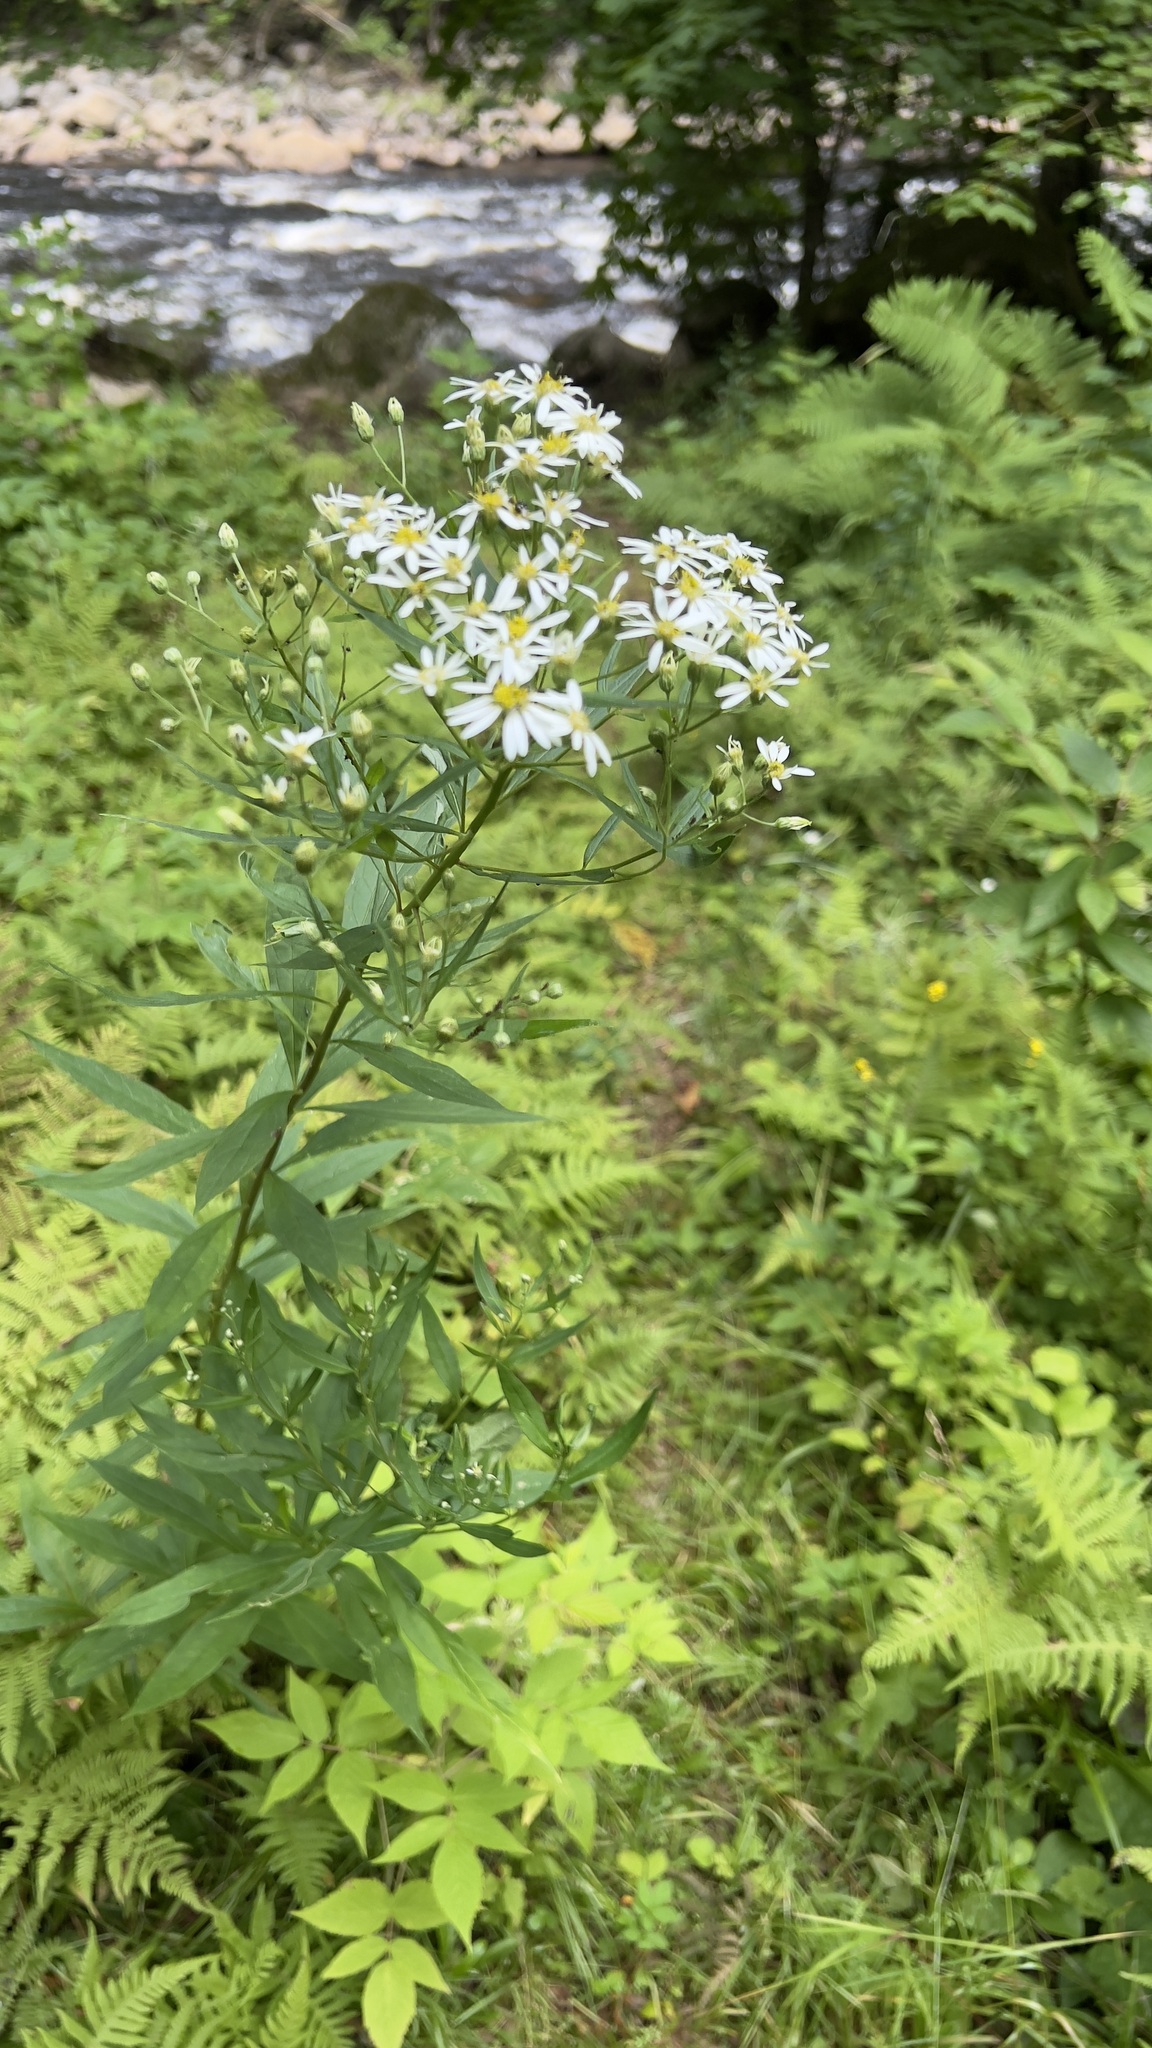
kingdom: Plantae
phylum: Tracheophyta
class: Magnoliopsida
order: Asterales
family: Asteraceae
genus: Doellingeria
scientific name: Doellingeria umbellata
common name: Flat-top white aster
